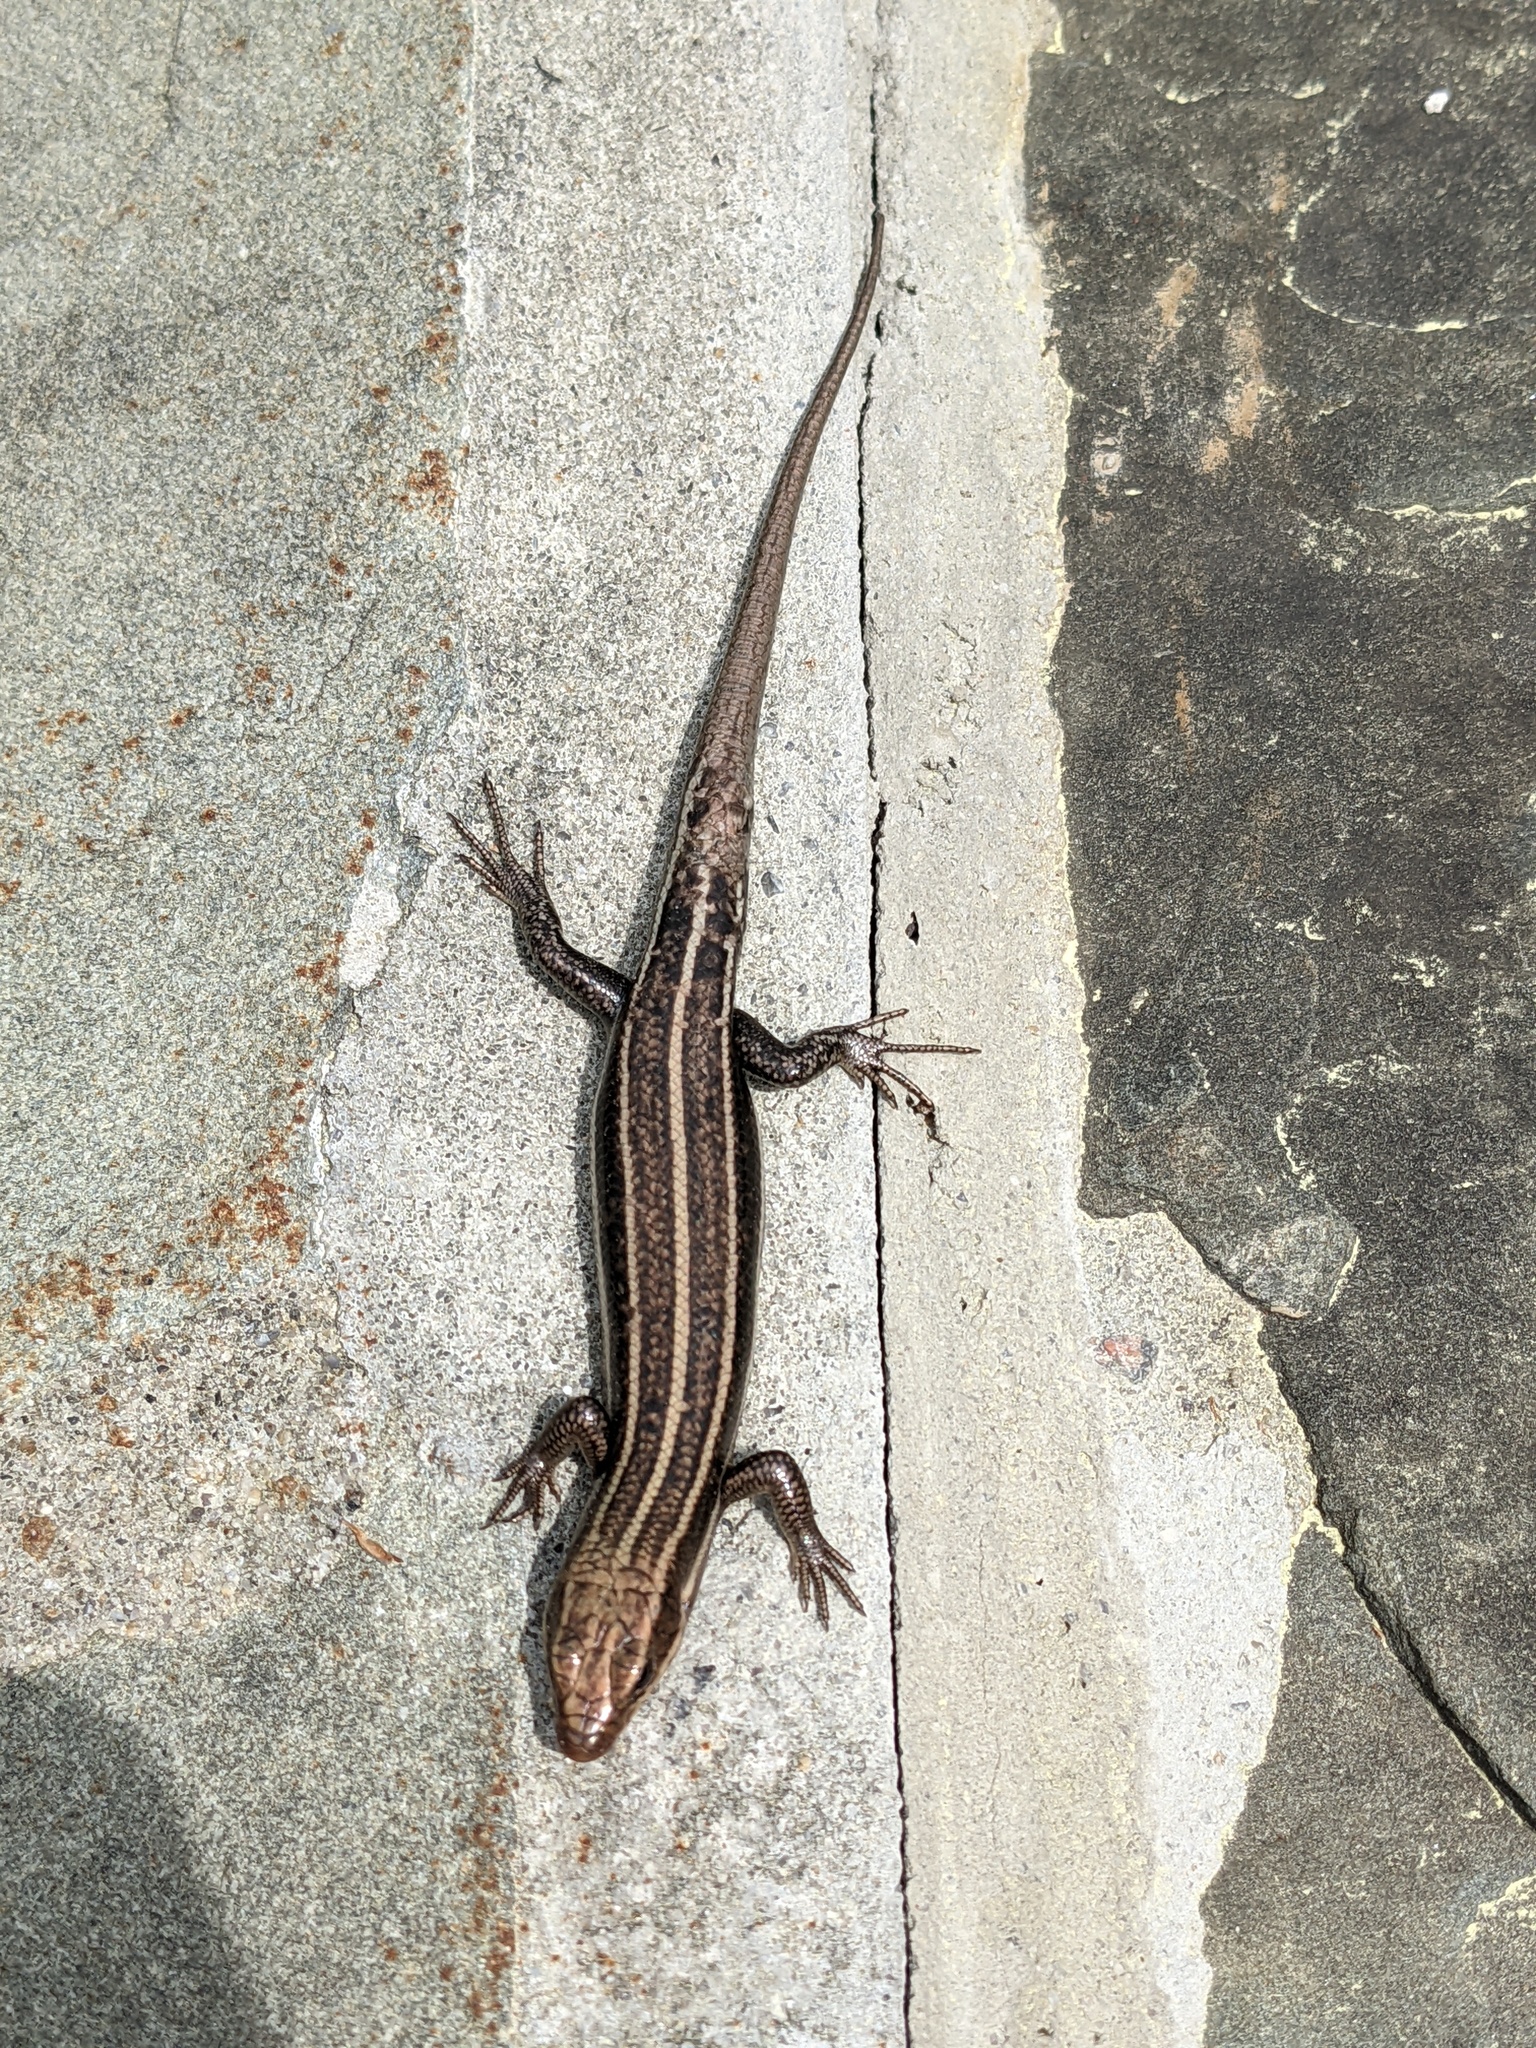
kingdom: Animalia
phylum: Chordata
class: Squamata
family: Scincidae
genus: Plestiodon
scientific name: Plestiodon fasciatus
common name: Five-lined skink
